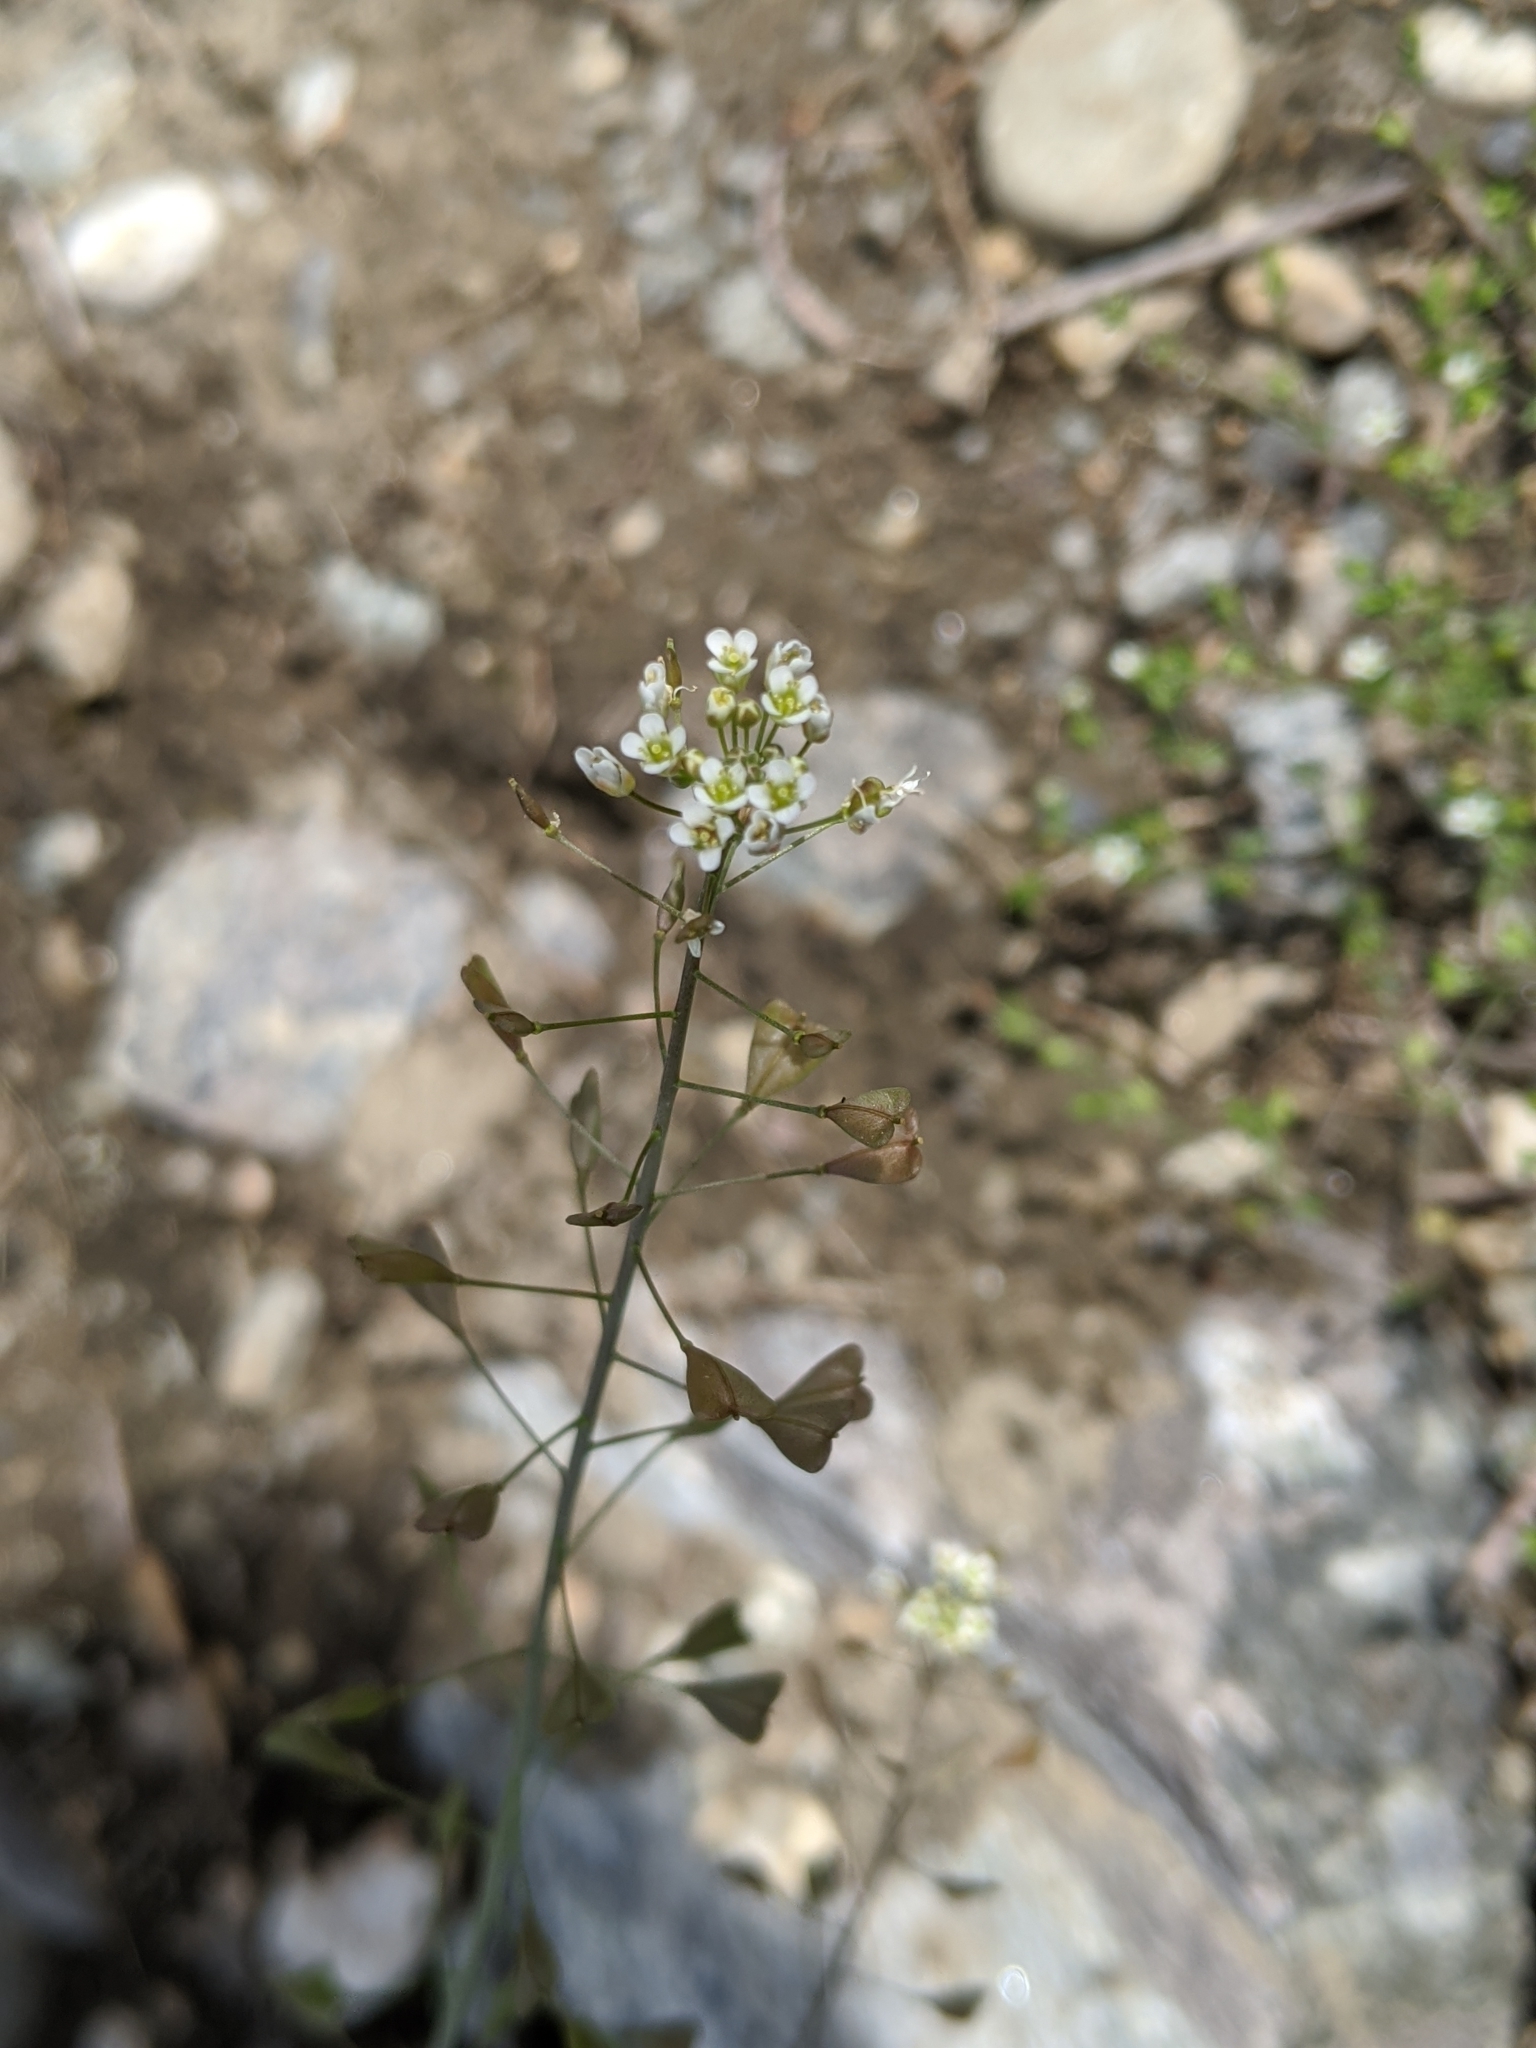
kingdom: Plantae
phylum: Tracheophyta
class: Magnoliopsida
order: Brassicales
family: Brassicaceae
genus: Capsella
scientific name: Capsella bursa-pastoris
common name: Shepherd's purse
